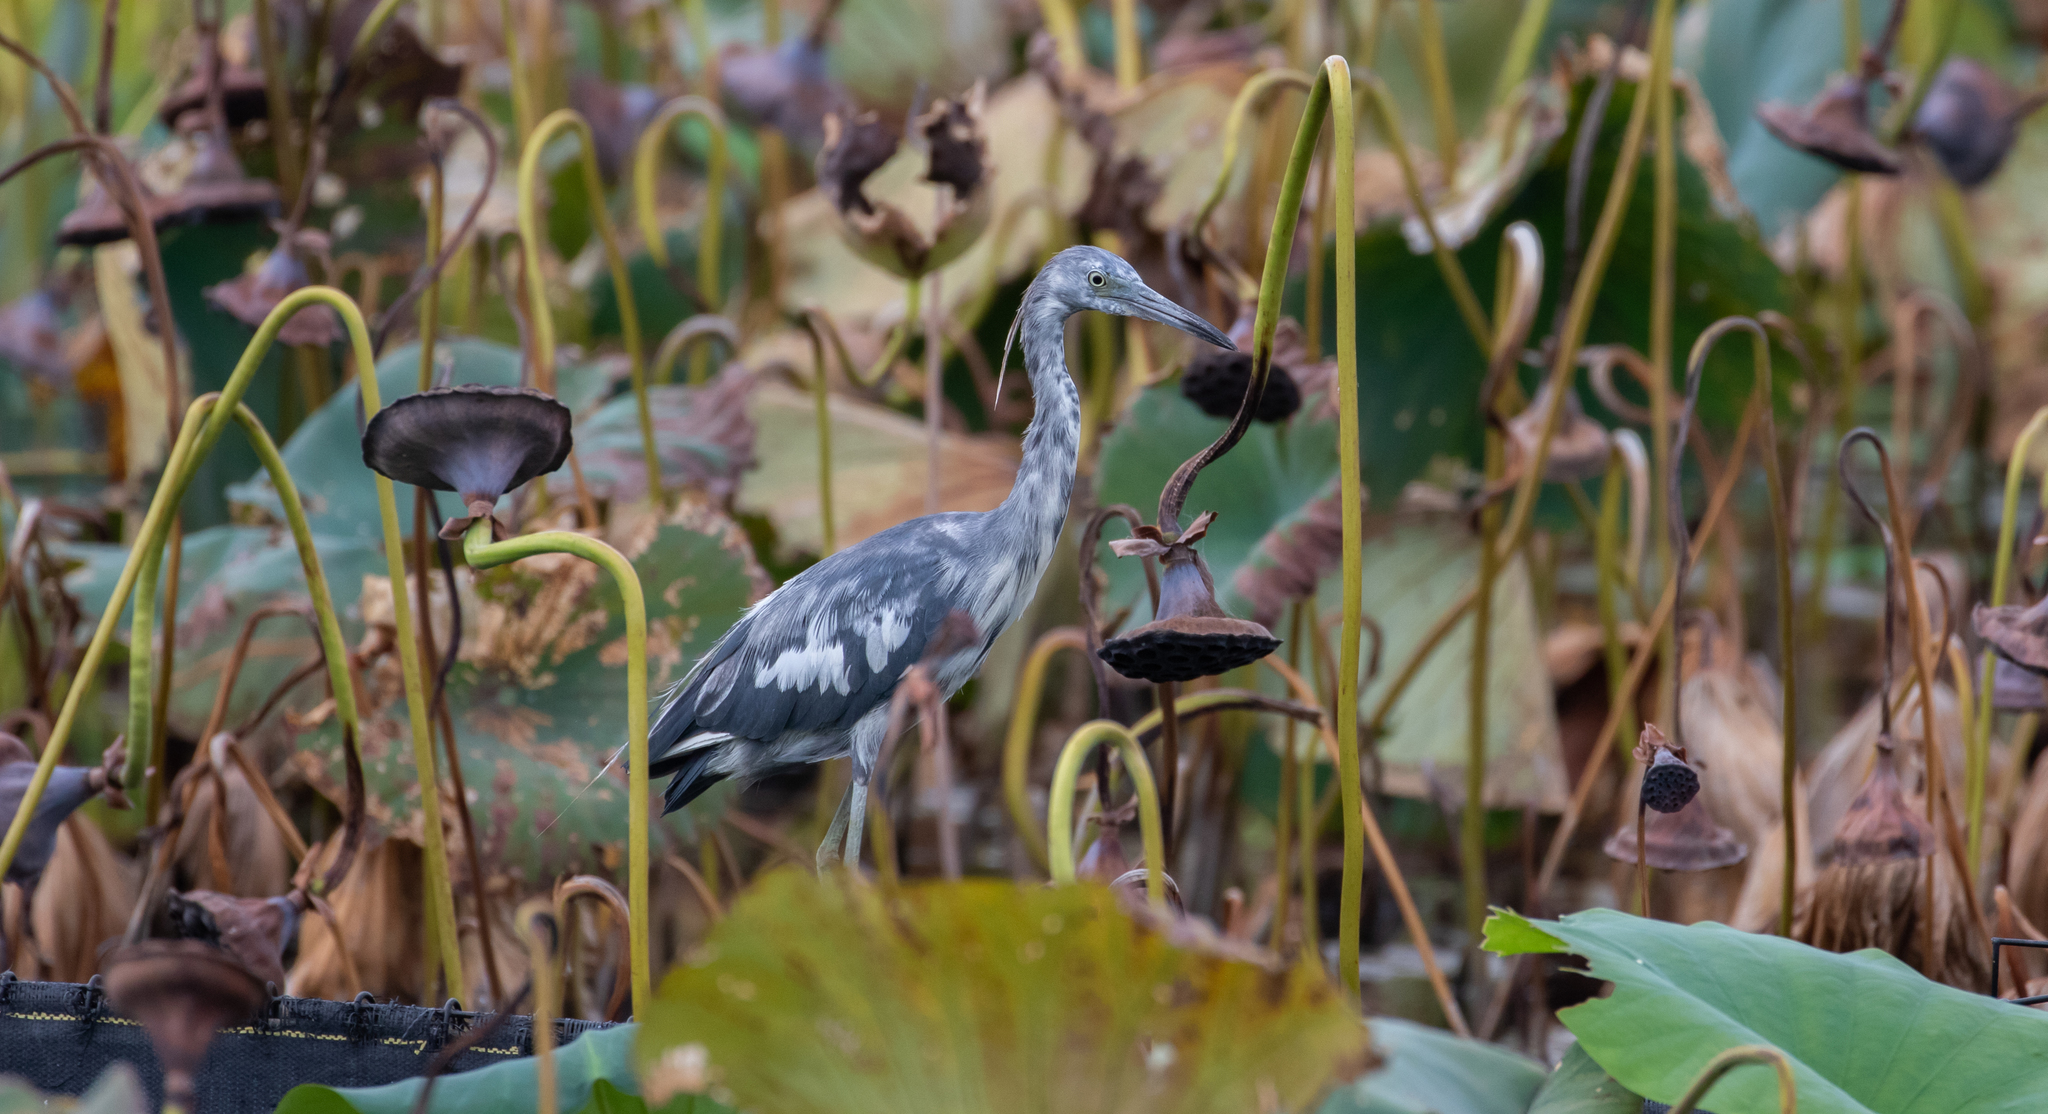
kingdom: Animalia
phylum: Chordata
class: Aves
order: Pelecaniformes
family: Ardeidae
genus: Egretta
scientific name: Egretta caerulea
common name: Little blue heron
